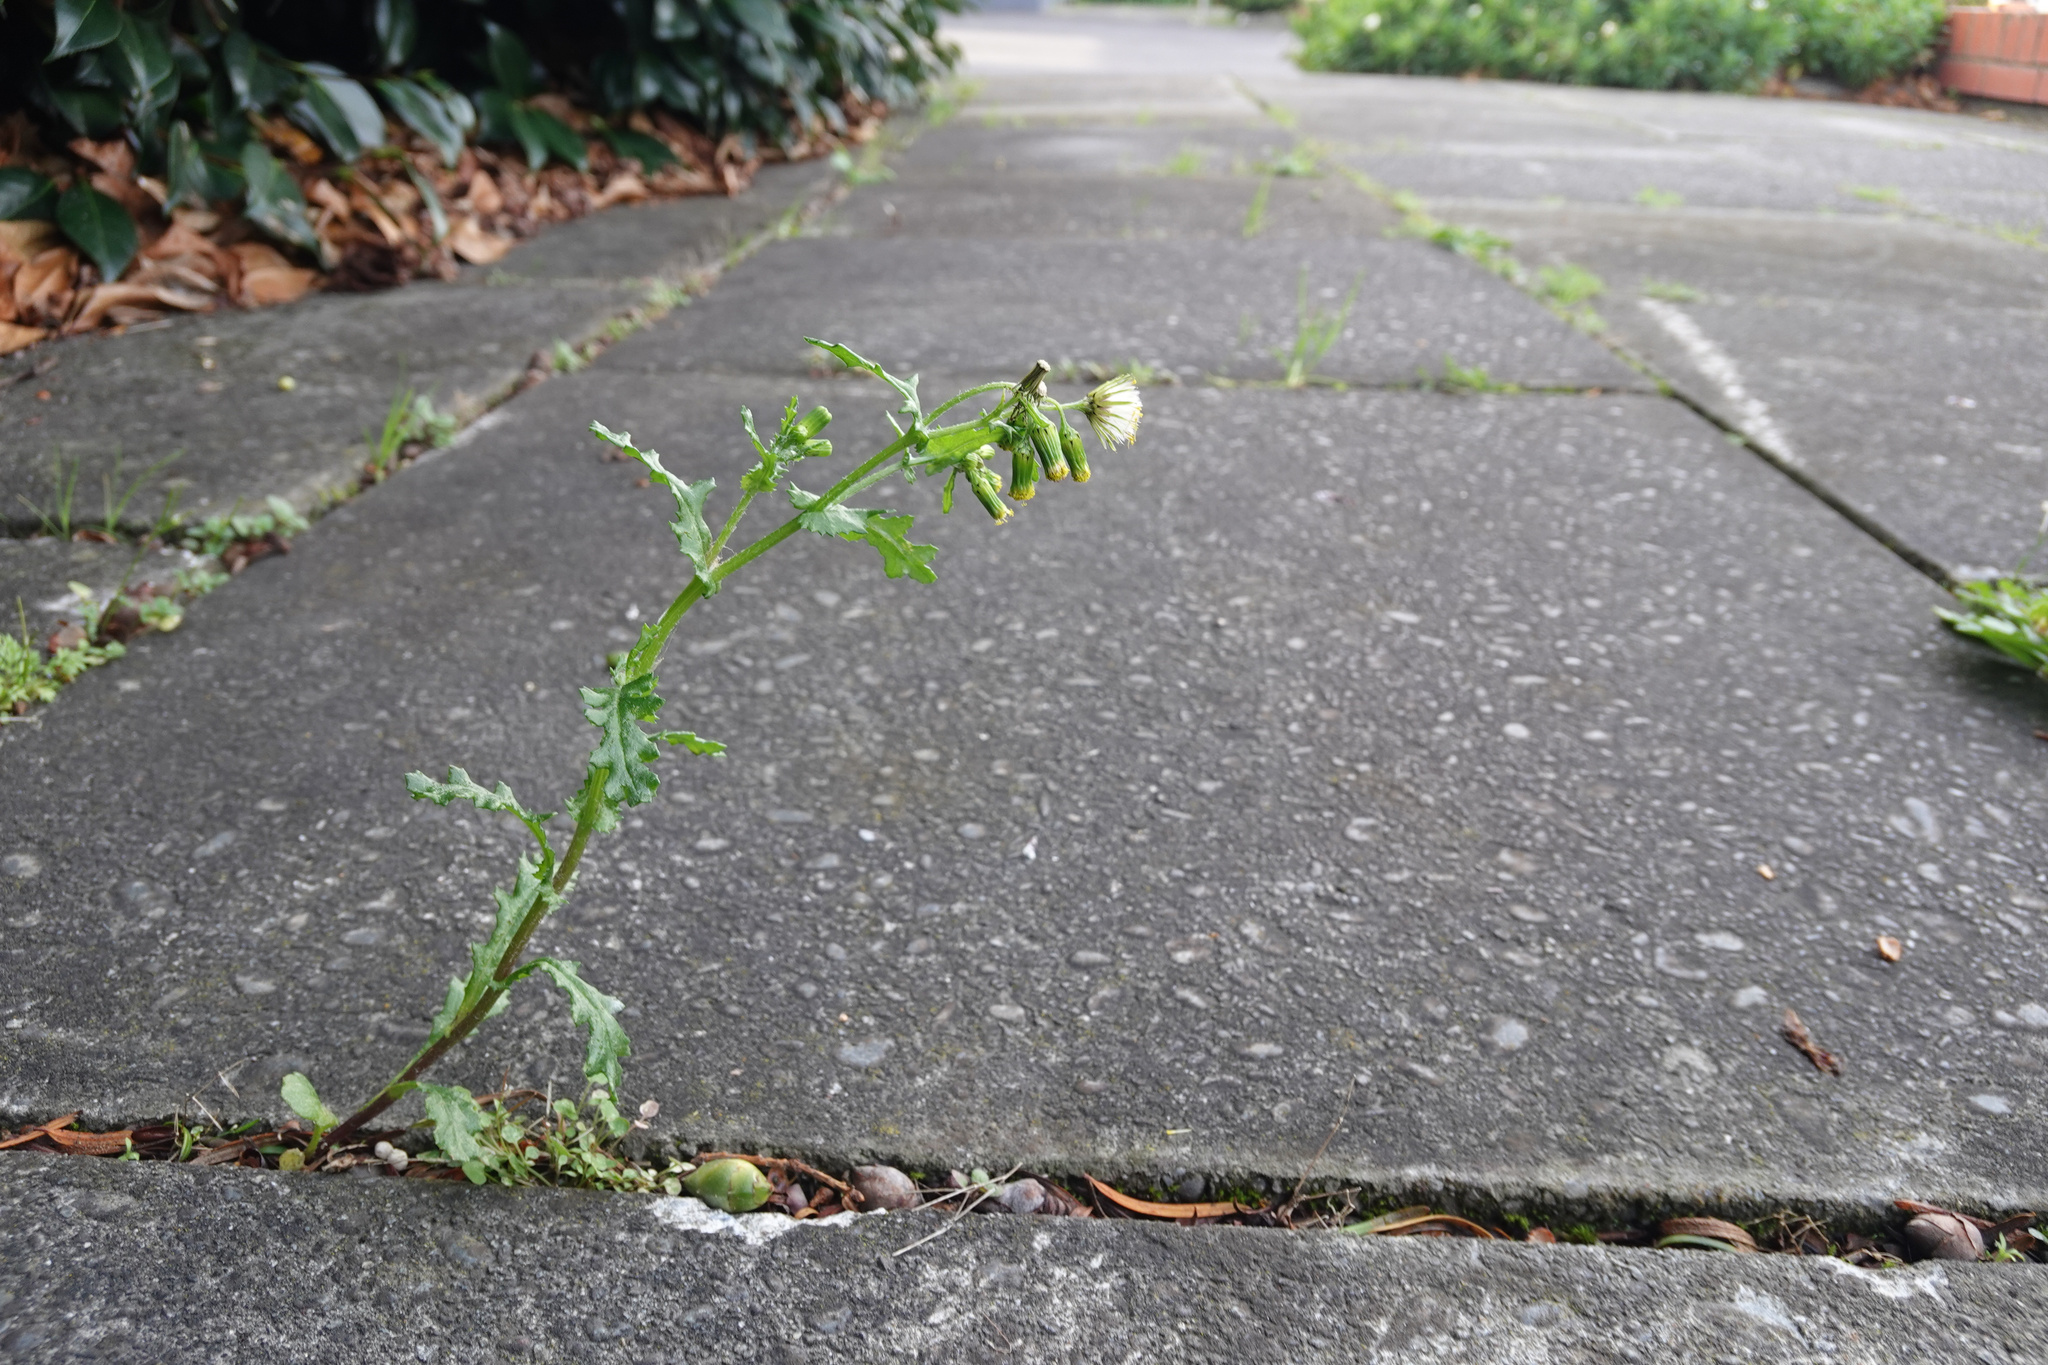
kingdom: Plantae
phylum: Tracheophyta
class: Magnoliopsida
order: Asterales
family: Asteraceae
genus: Senecio
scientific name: Senecio vulgaris
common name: Old-man-in-the-spring
